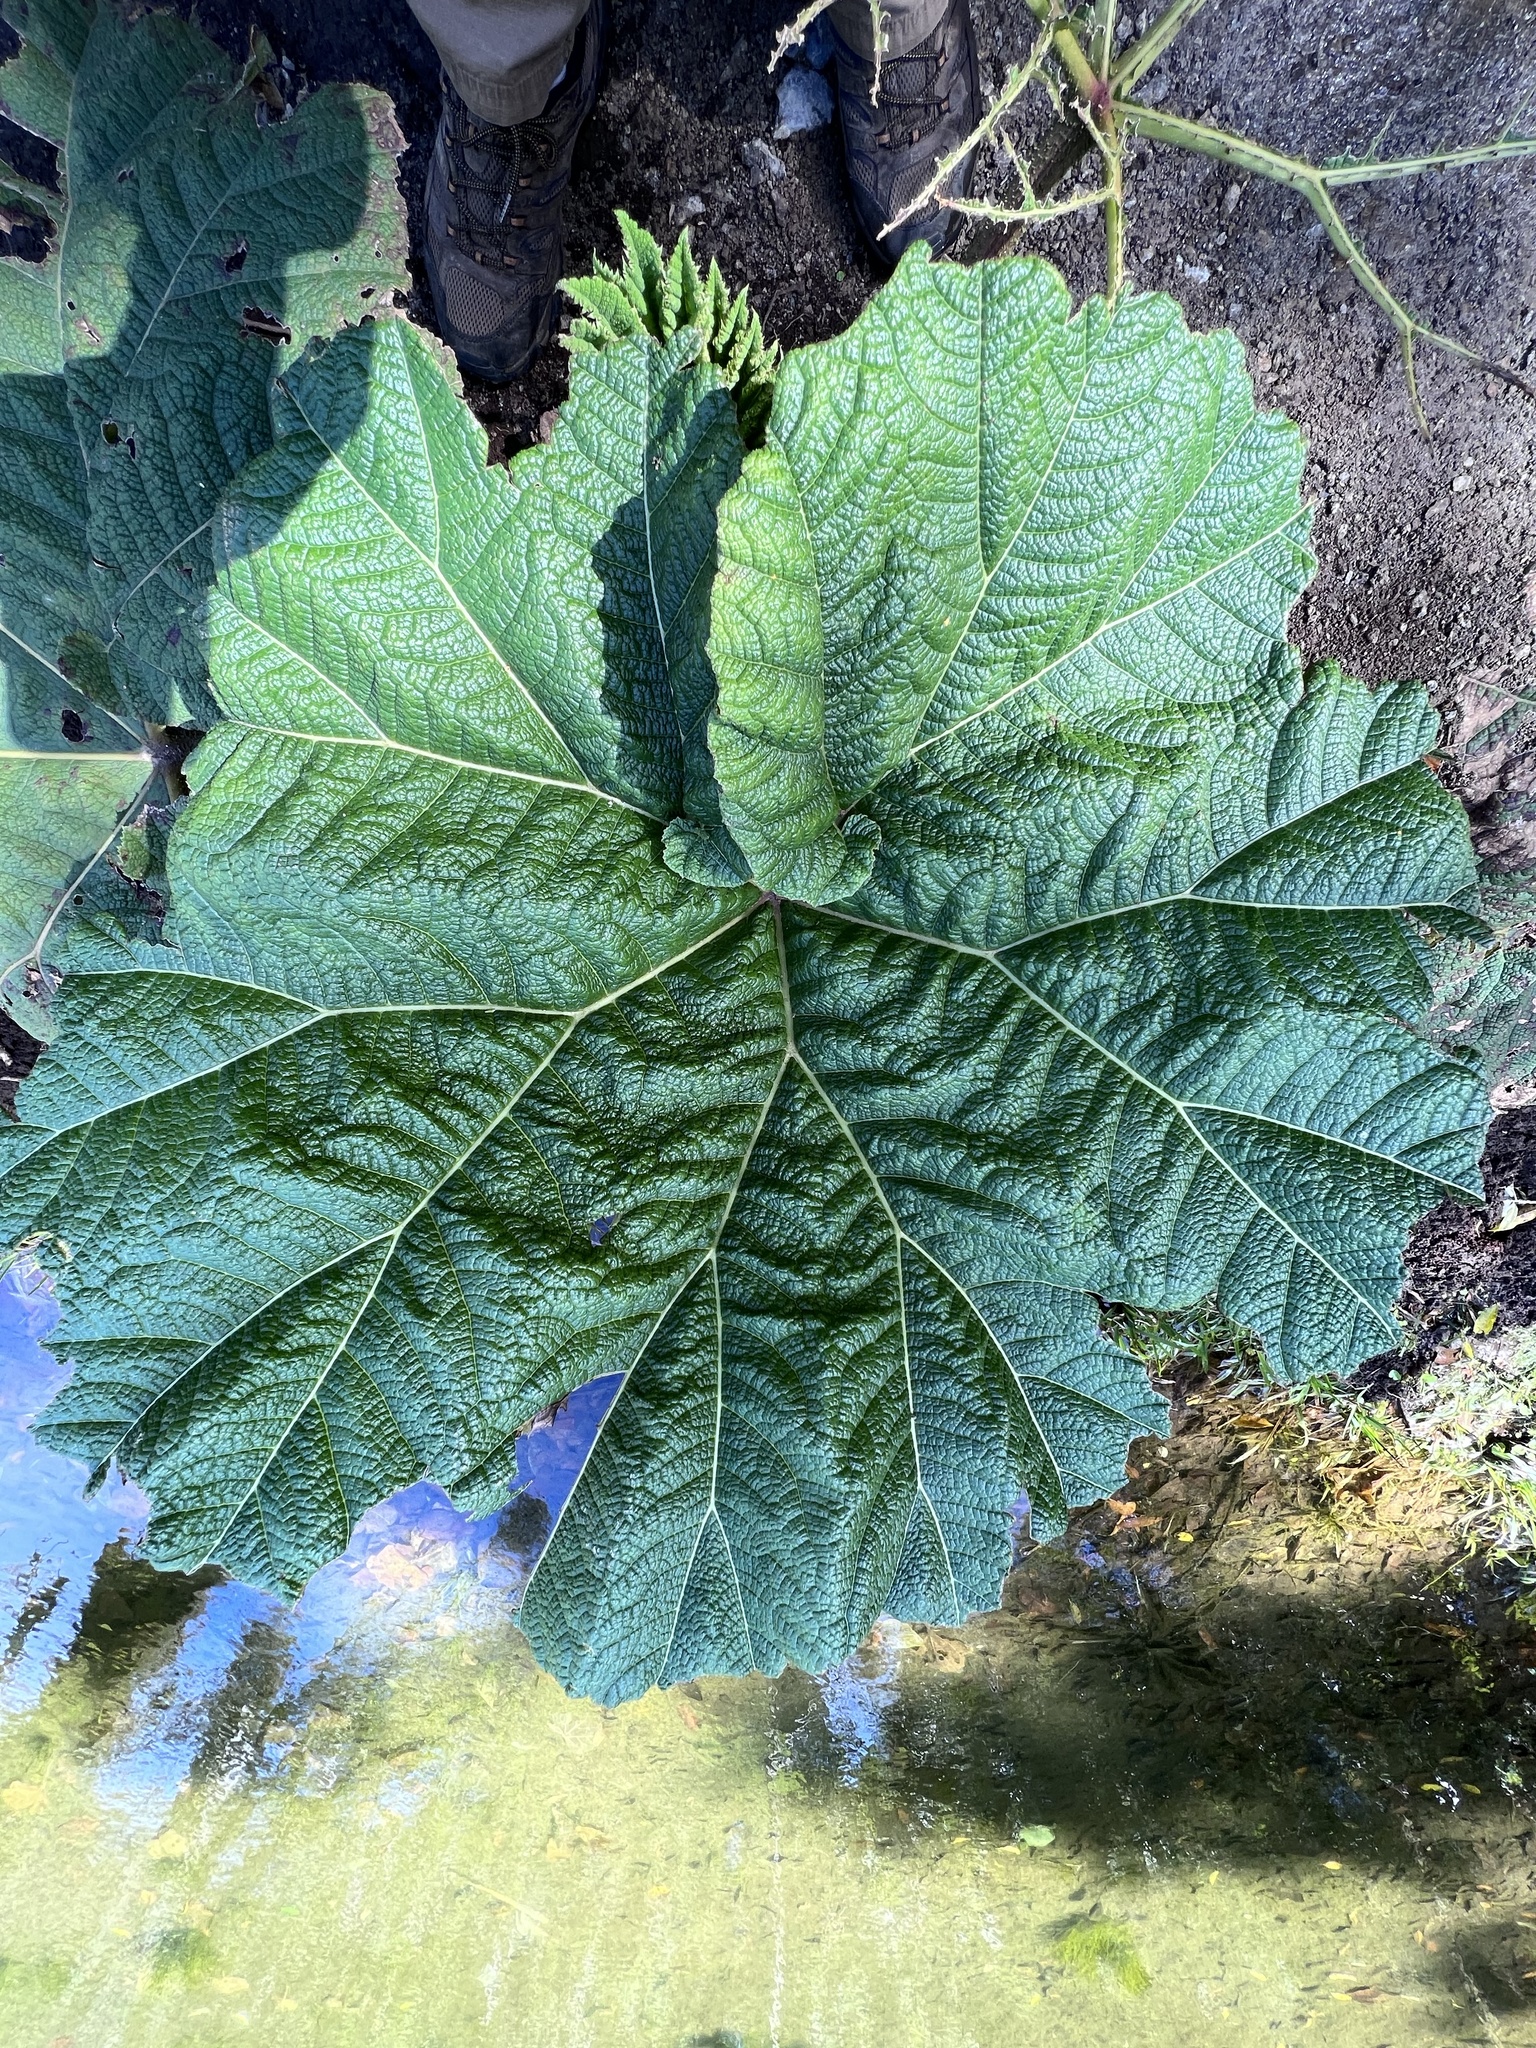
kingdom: Plantae
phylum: Tracheophyta
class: Magnoliopsida
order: Gunnerales
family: Gunneraceae
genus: Gunnera
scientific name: Gunnera insignis
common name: Poorman's umbrella
